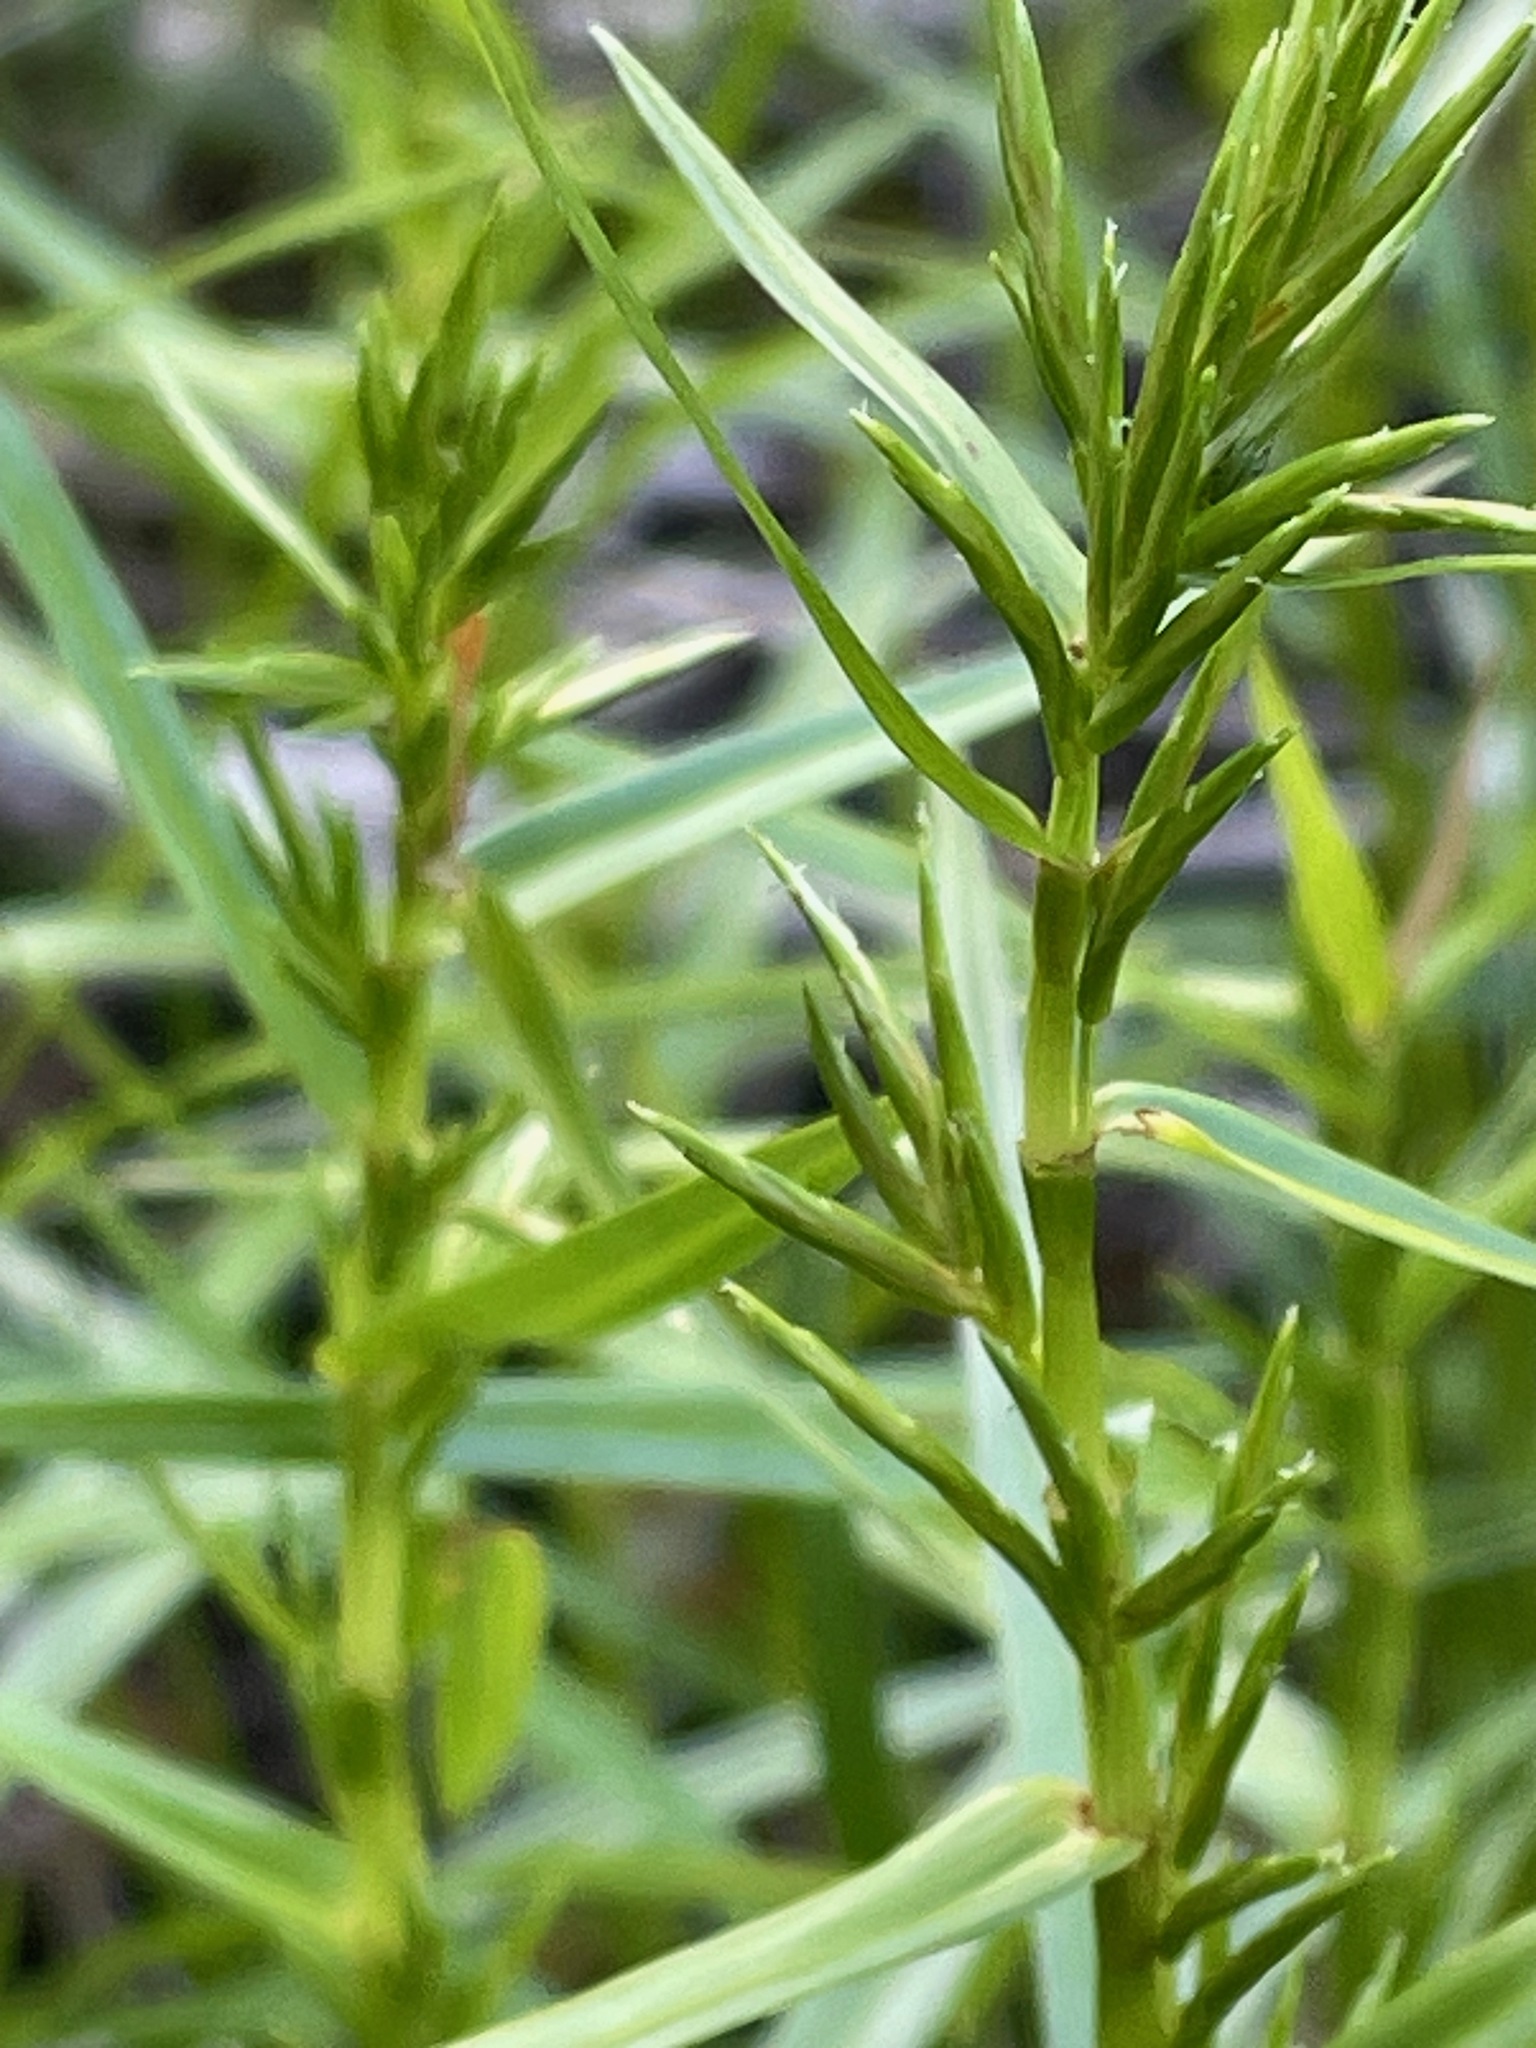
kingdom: Plantae
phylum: Tracheophyta
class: Liliopsida
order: Poales
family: Cyperaceae
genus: Dulichium
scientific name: Dulichium arundinaceum
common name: Three-way sedge
